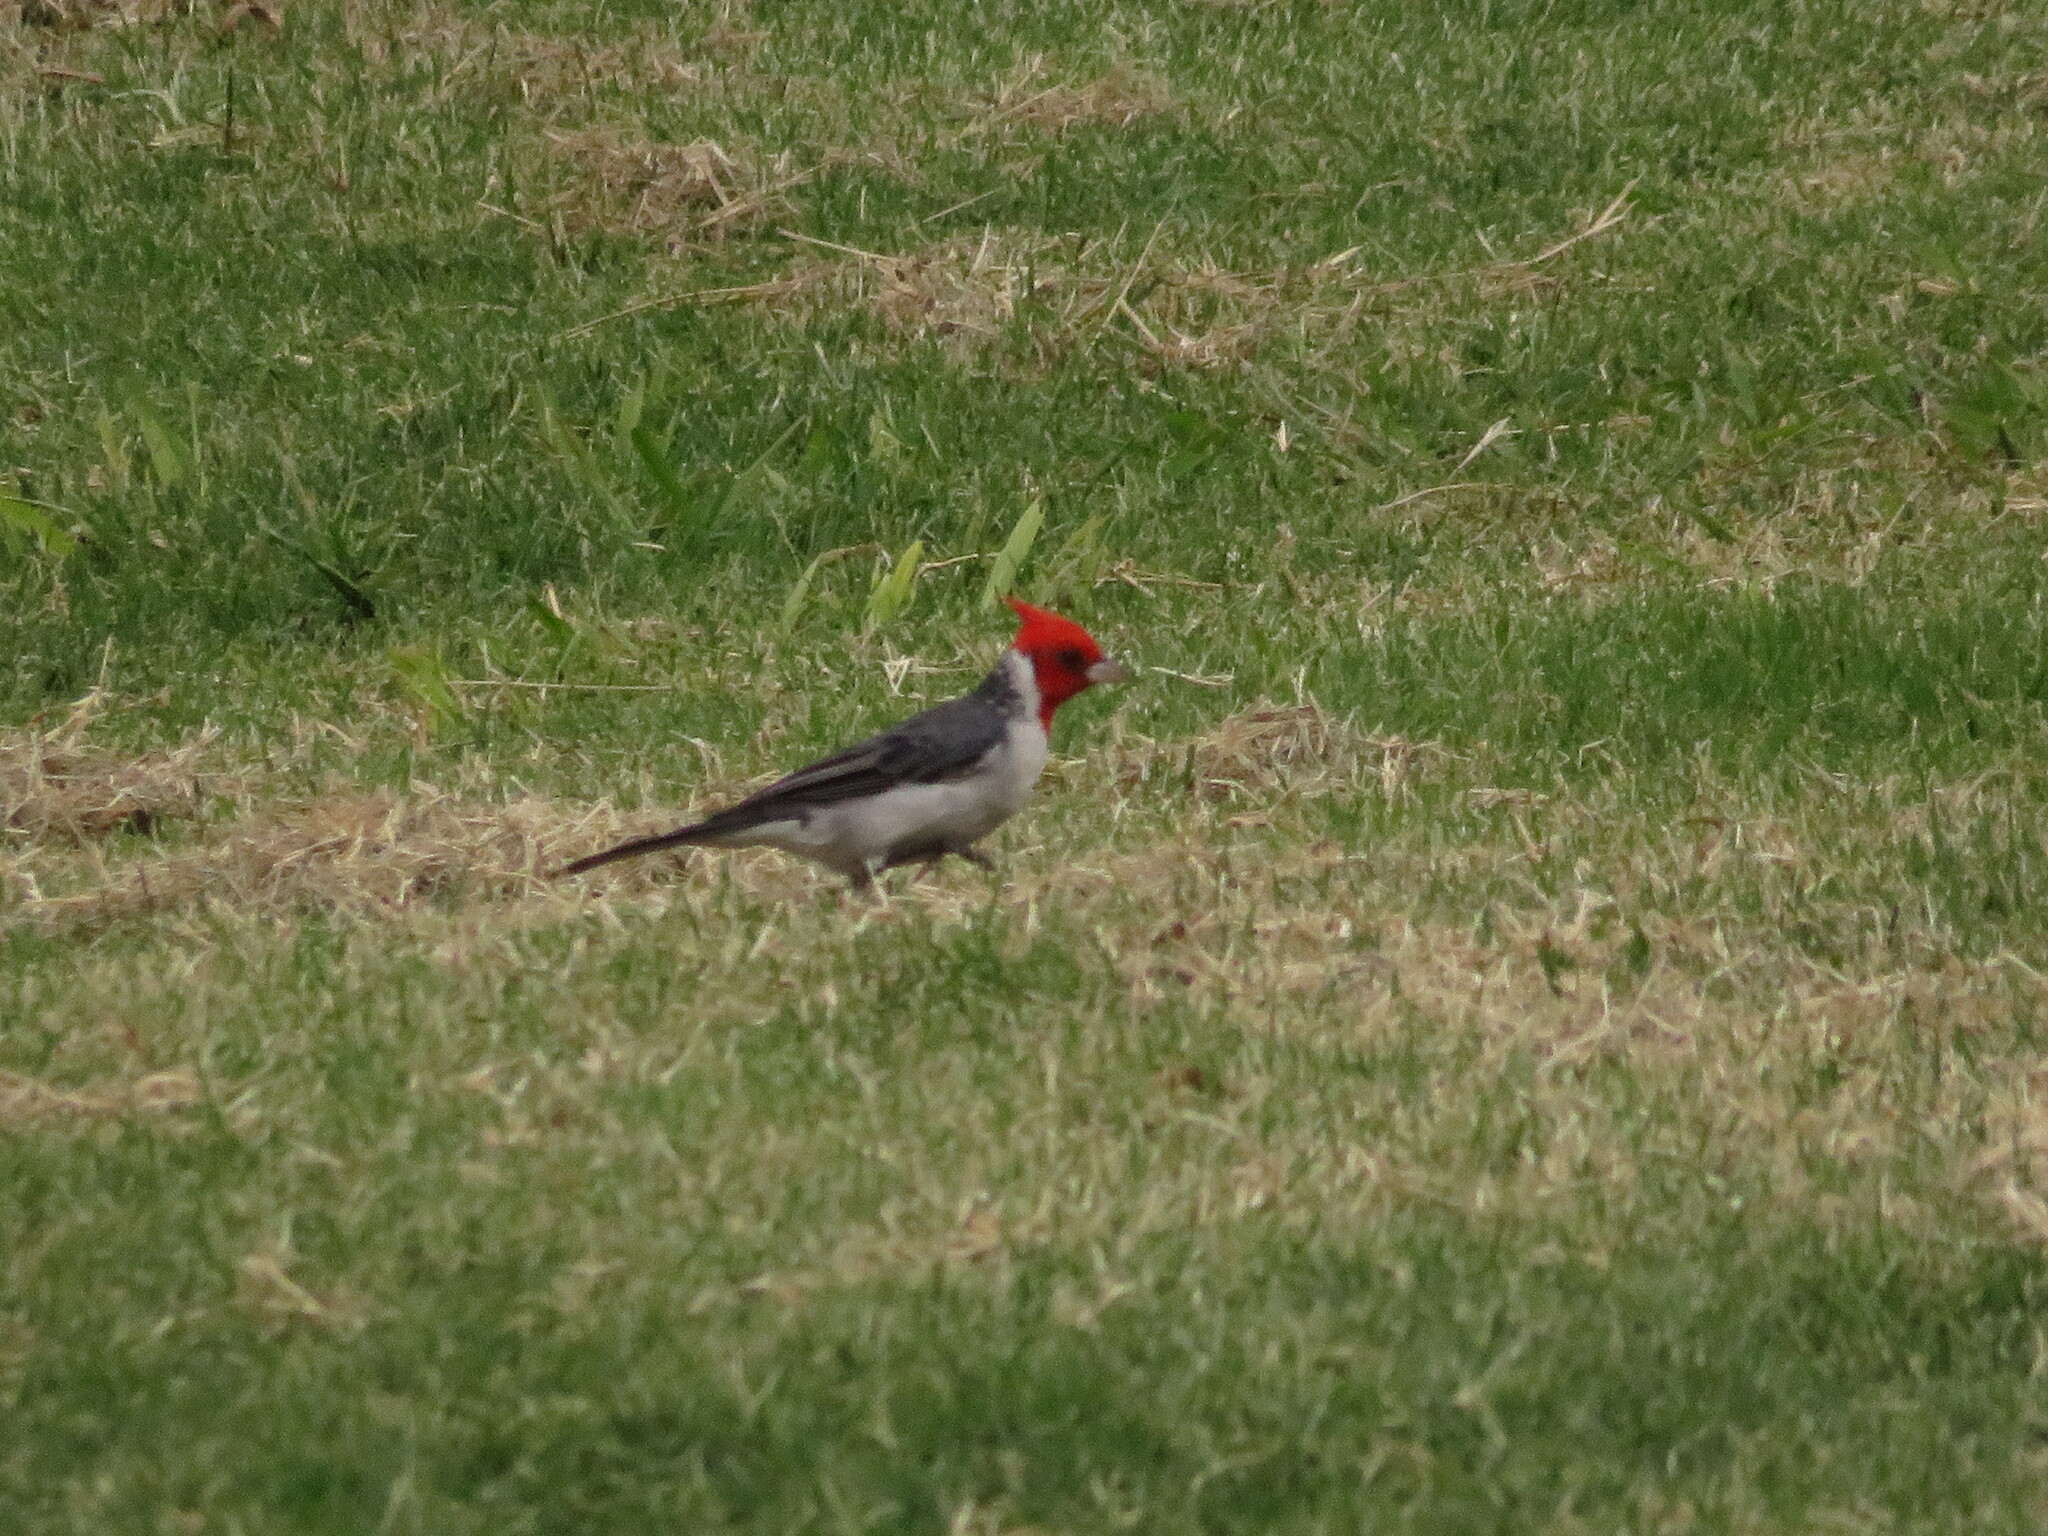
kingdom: Animalia
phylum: Chordata
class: Aves
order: Passeriformes
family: Thraupidae
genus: Paroaria
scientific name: Paroaria coronata
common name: Red-crested cardinal
